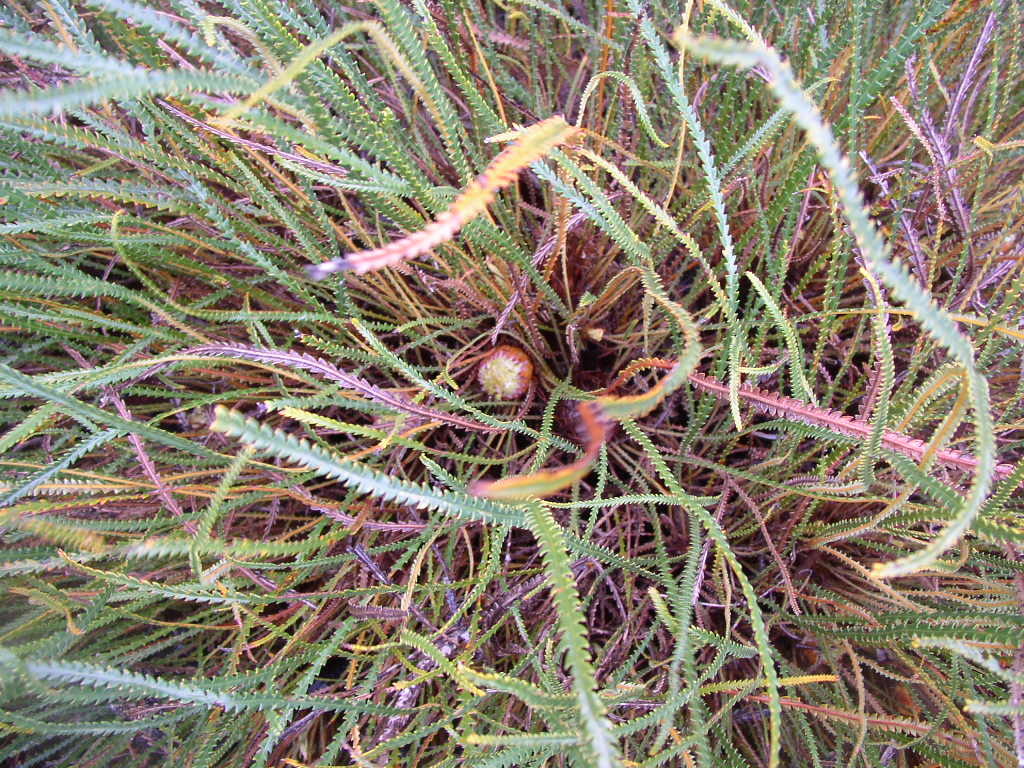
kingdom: Plantae
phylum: Tracheophyta
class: Magnoliopsida
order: Proteales
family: Proteaceae
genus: Banksia
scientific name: Banksia nivea
